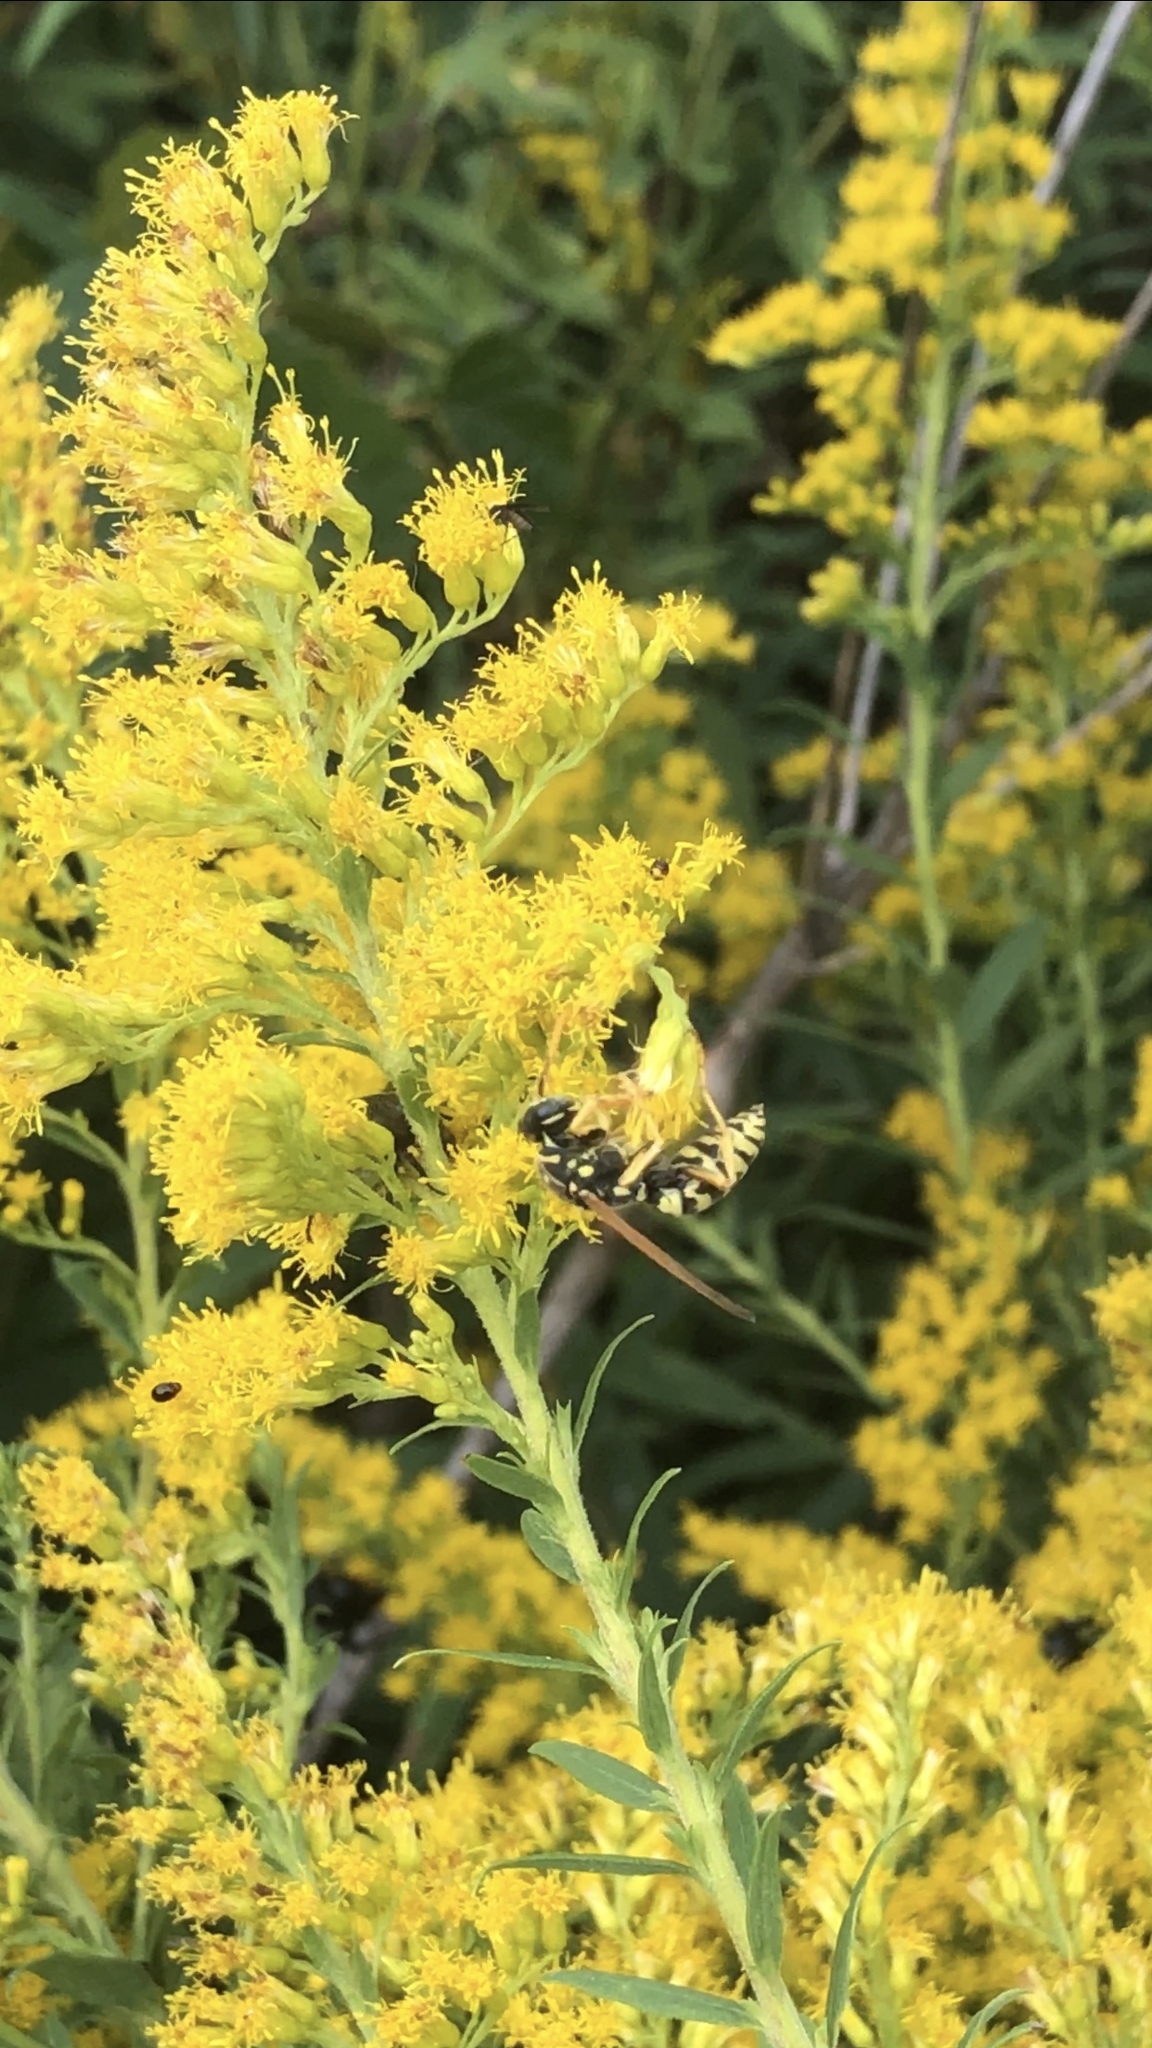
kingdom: Animalia
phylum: Arthropoda
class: Insecta
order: Hymenoptera
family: Eumenidae
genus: Polistes
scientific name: Polistes dominula
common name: Paper wasp
